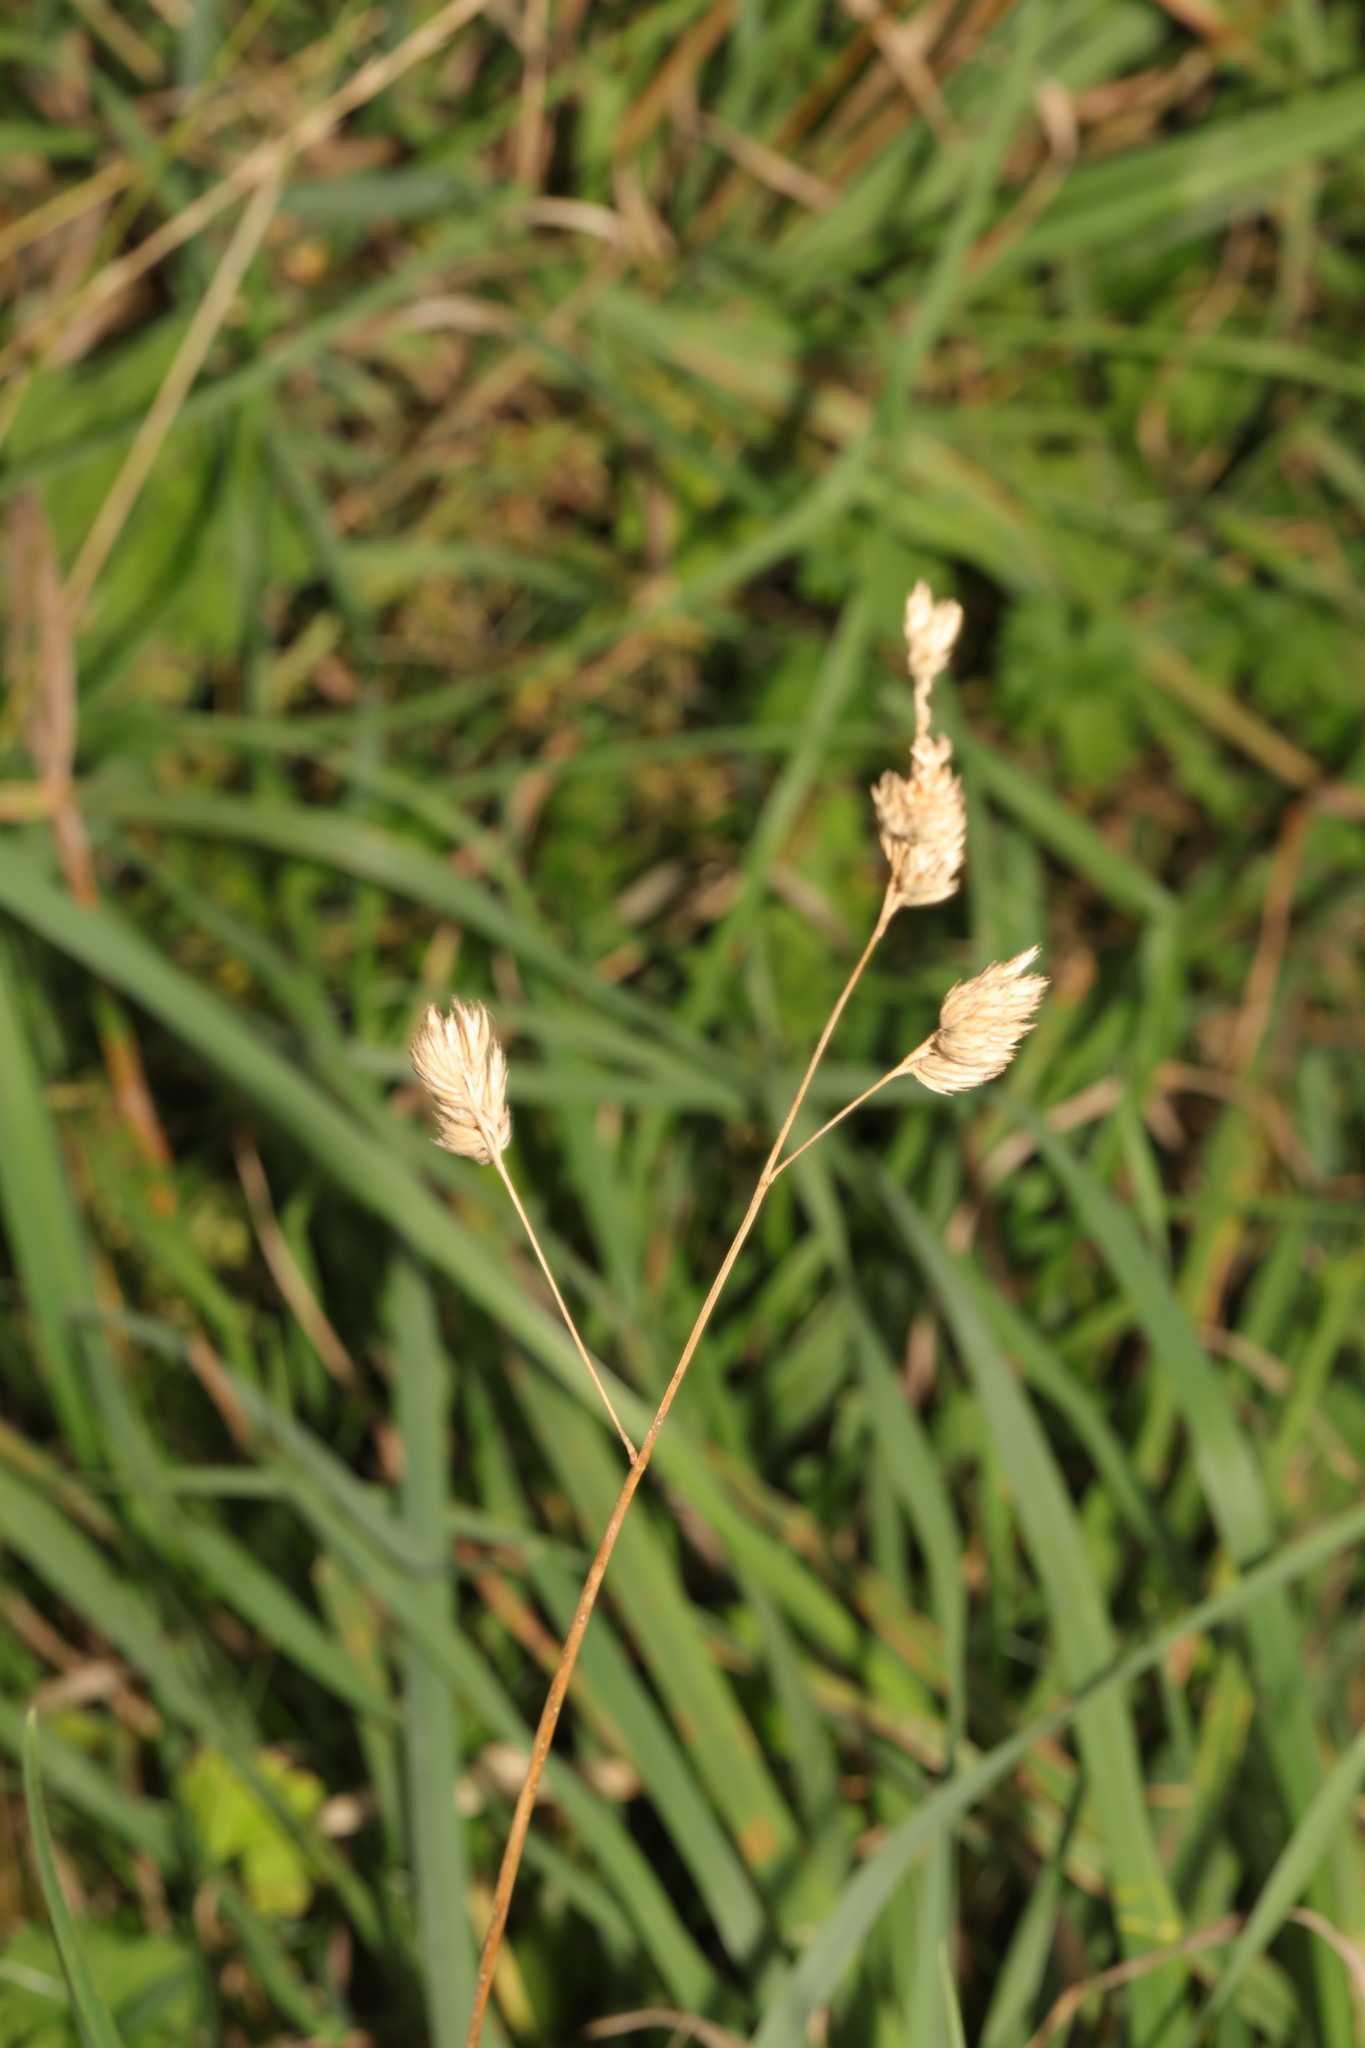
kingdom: Plantae
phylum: Tracheophyta
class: Liliopsida
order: Poales
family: Poaceae
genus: Dactylis
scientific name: Dactylis glomerata
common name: Orchardgrass
